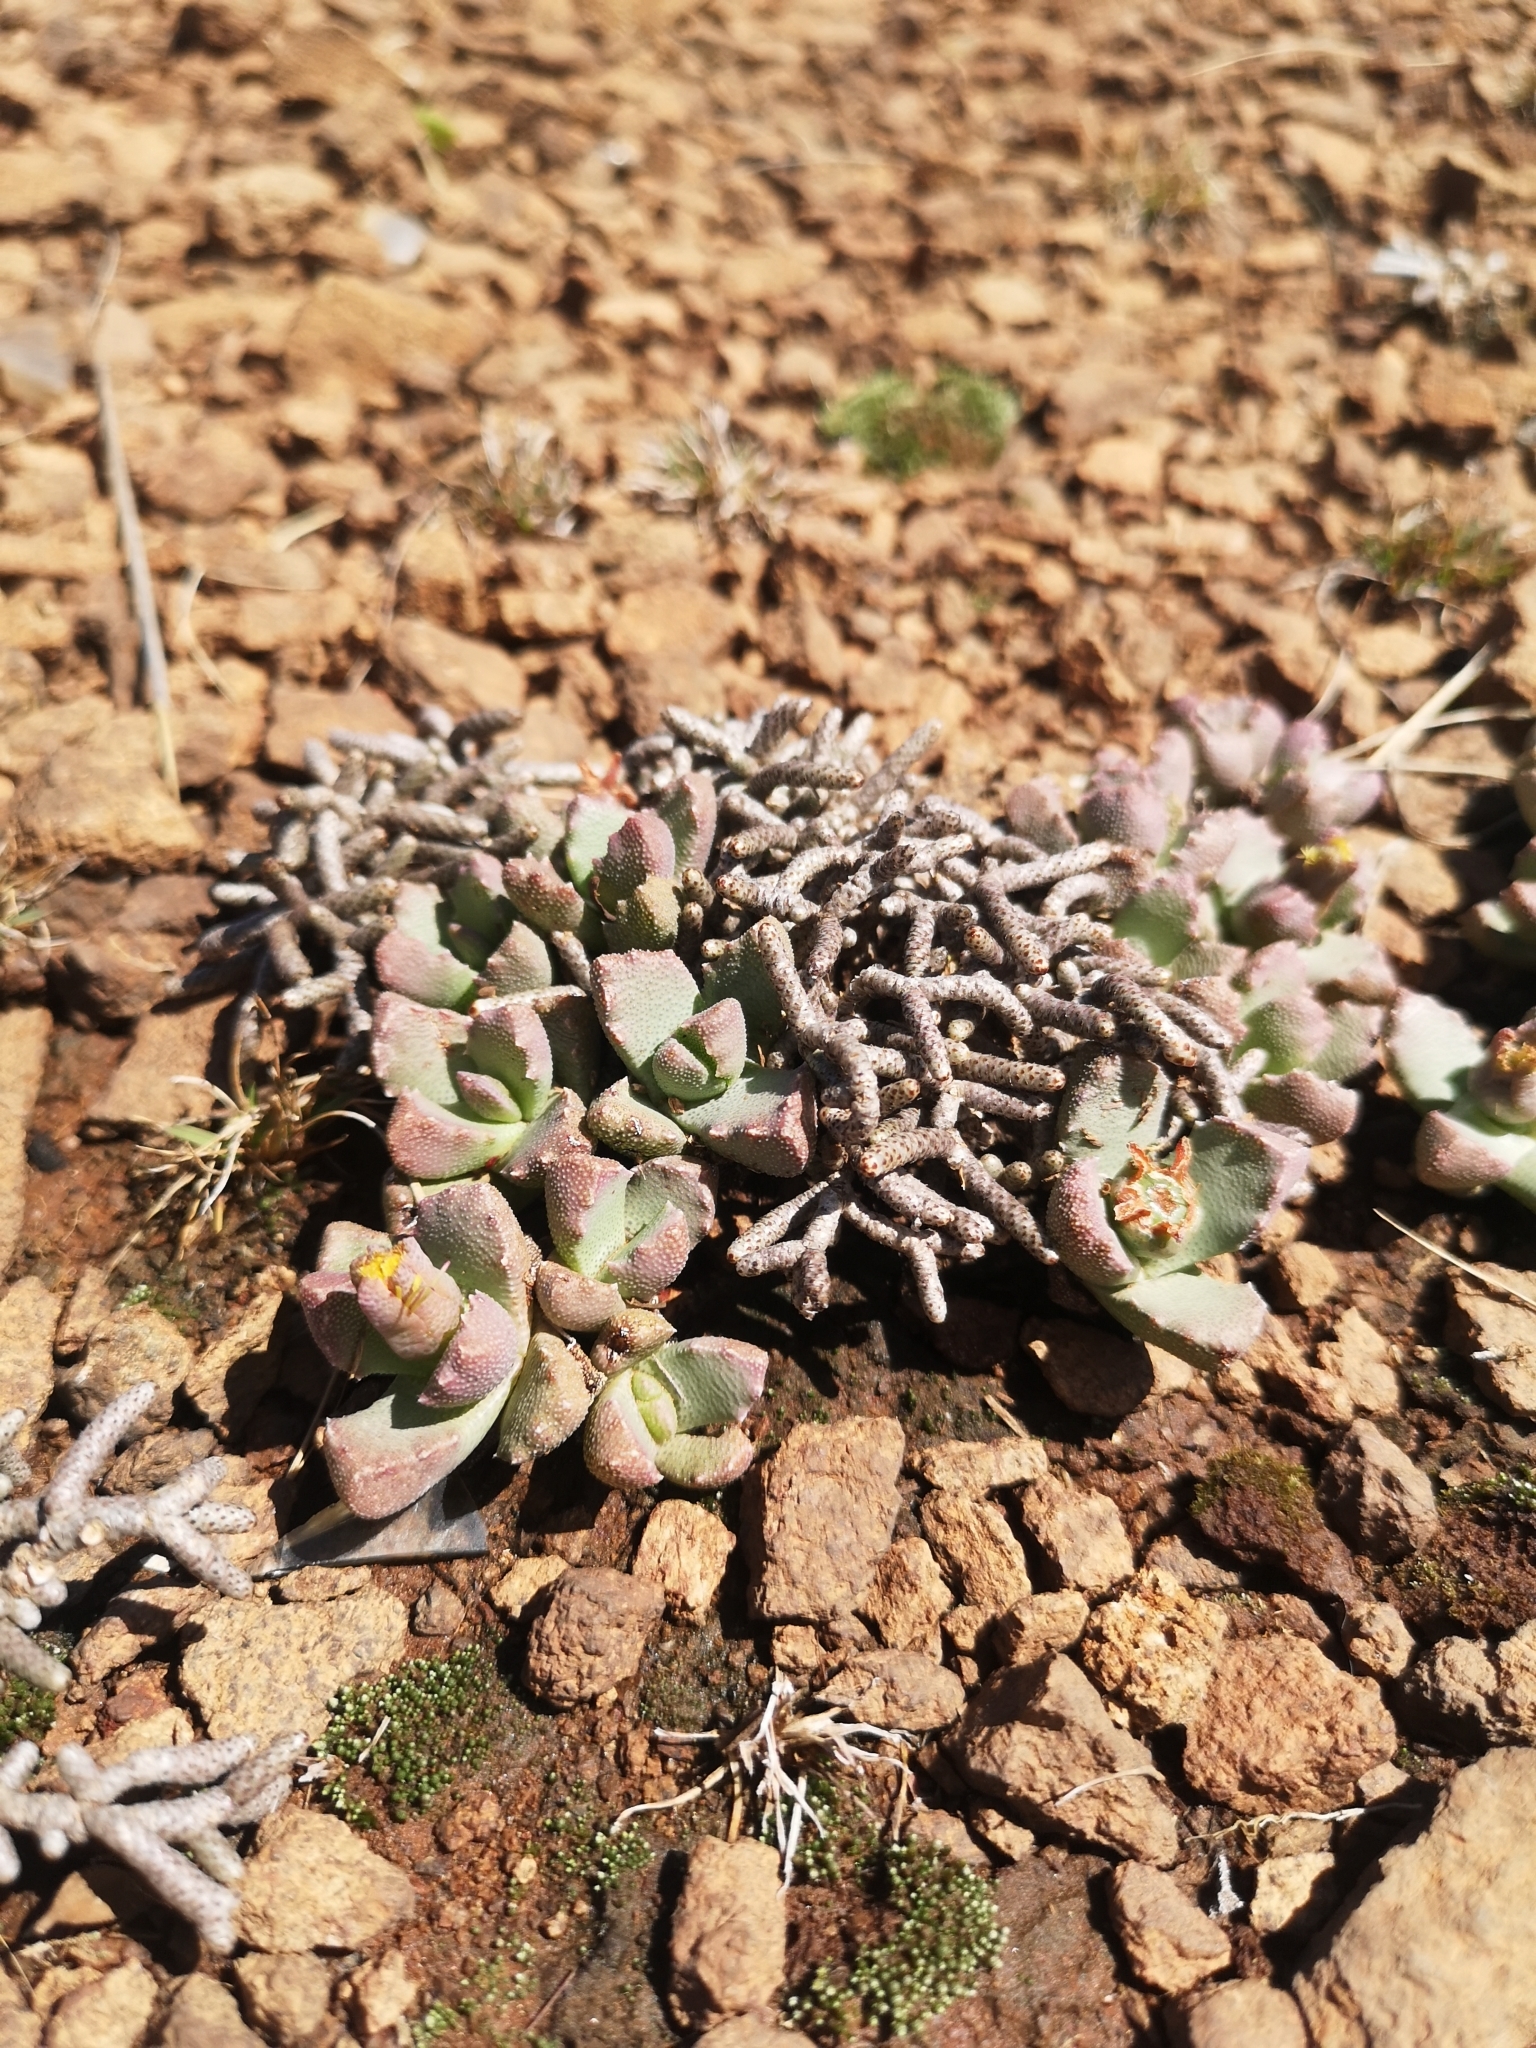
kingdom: Plantae
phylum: Tracheophyta
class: Magnoliopsida
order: Caryophyllales
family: Aizoaceae
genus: Stomatium
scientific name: Stomatium braunsii
